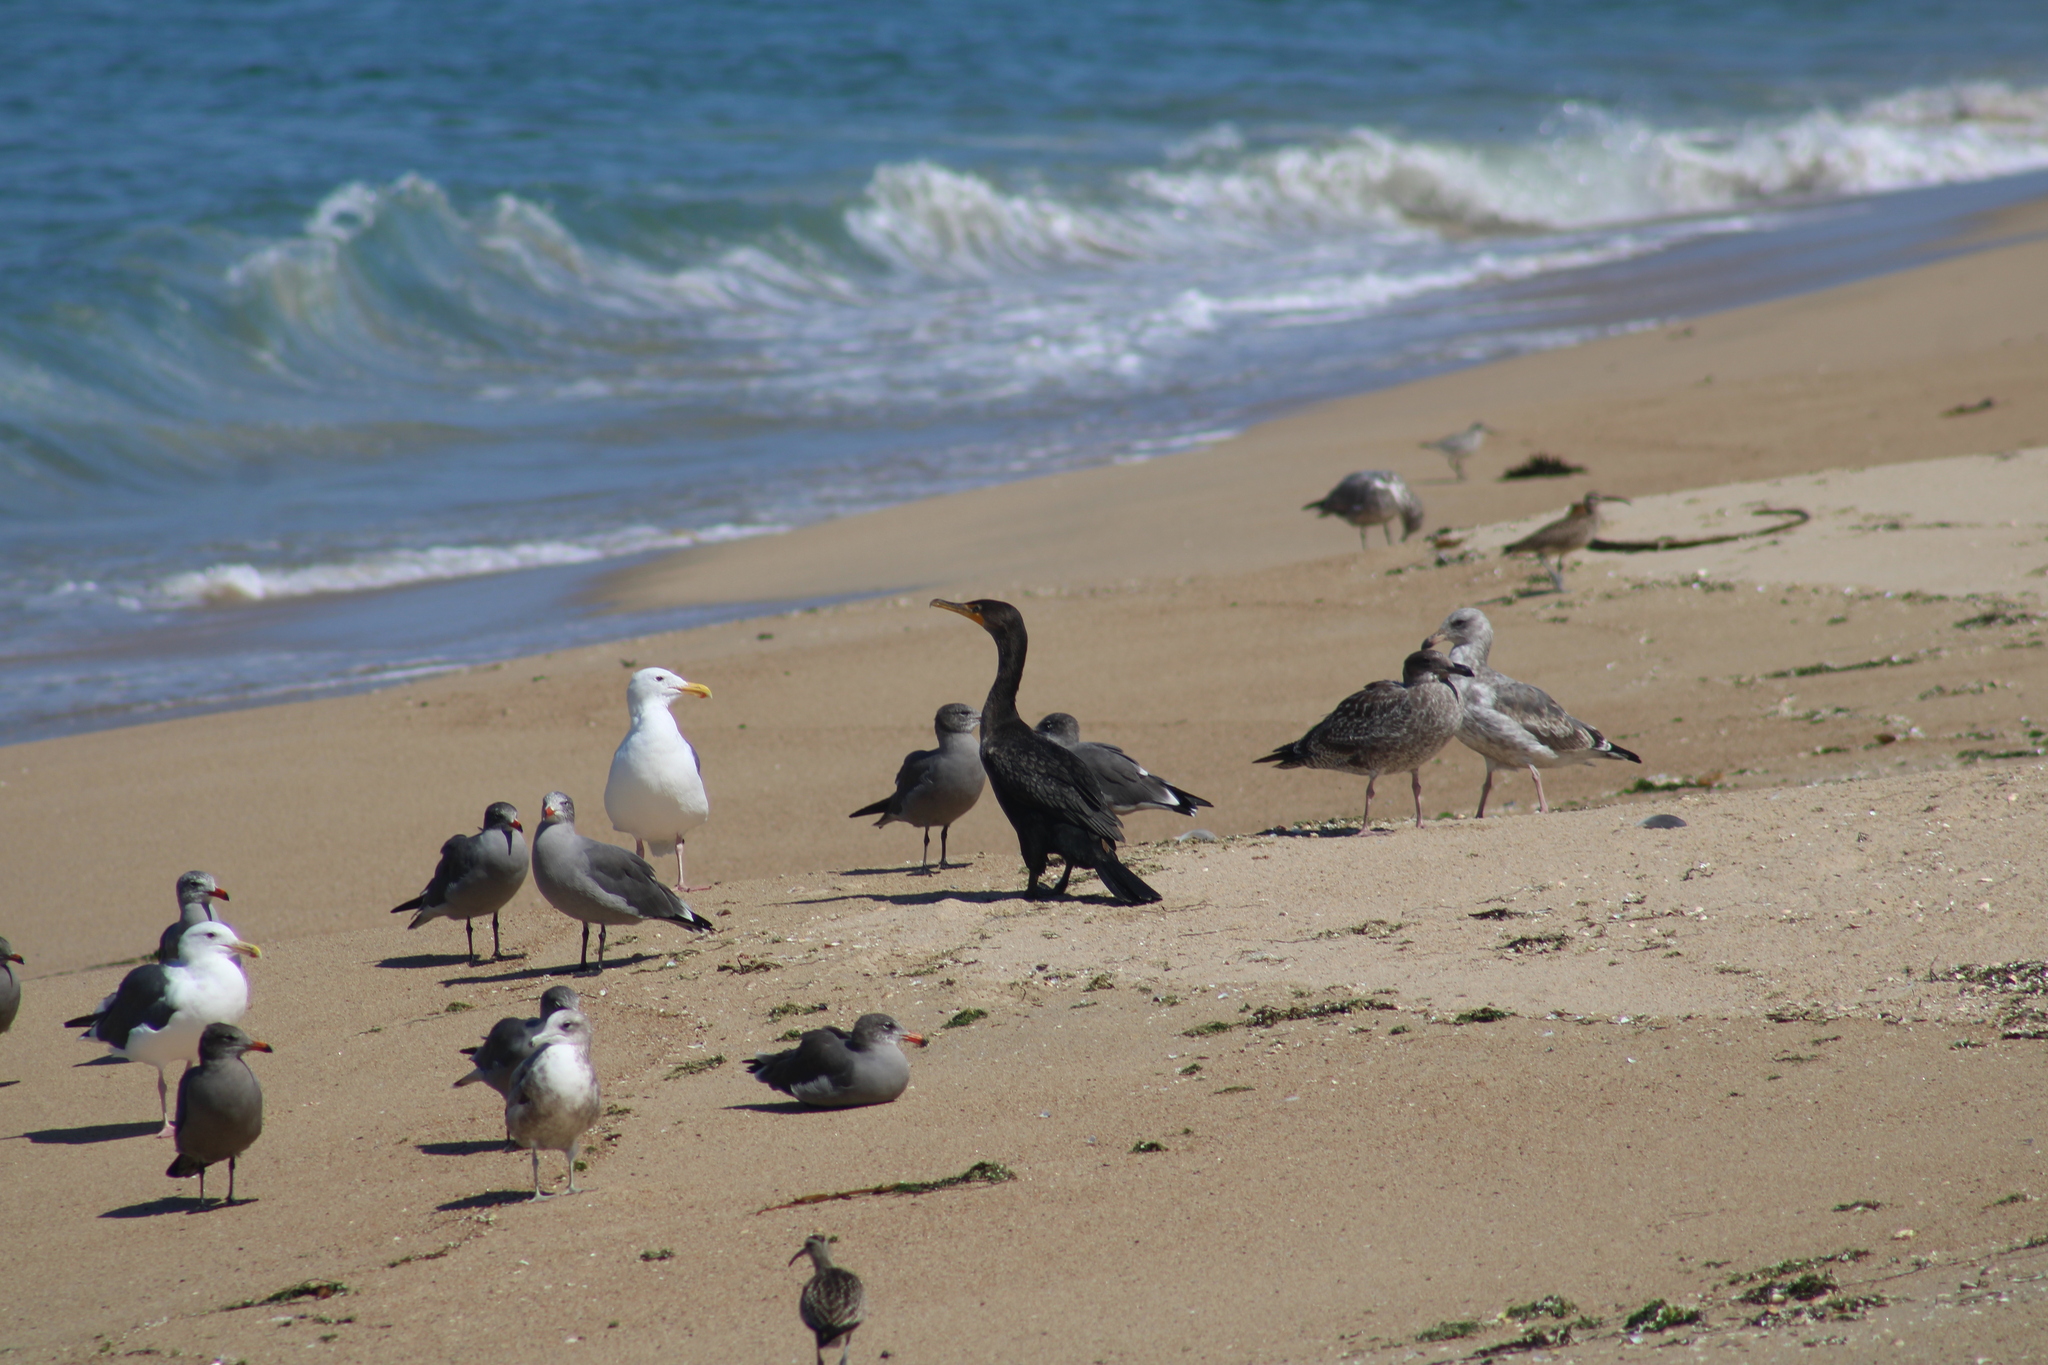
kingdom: Animalia
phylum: Chordata
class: Aves
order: Suliformes
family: Phalacrocoracidae
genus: Phalacrocorax
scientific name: Phalacrocorax auritus
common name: Double-crested cormorant
